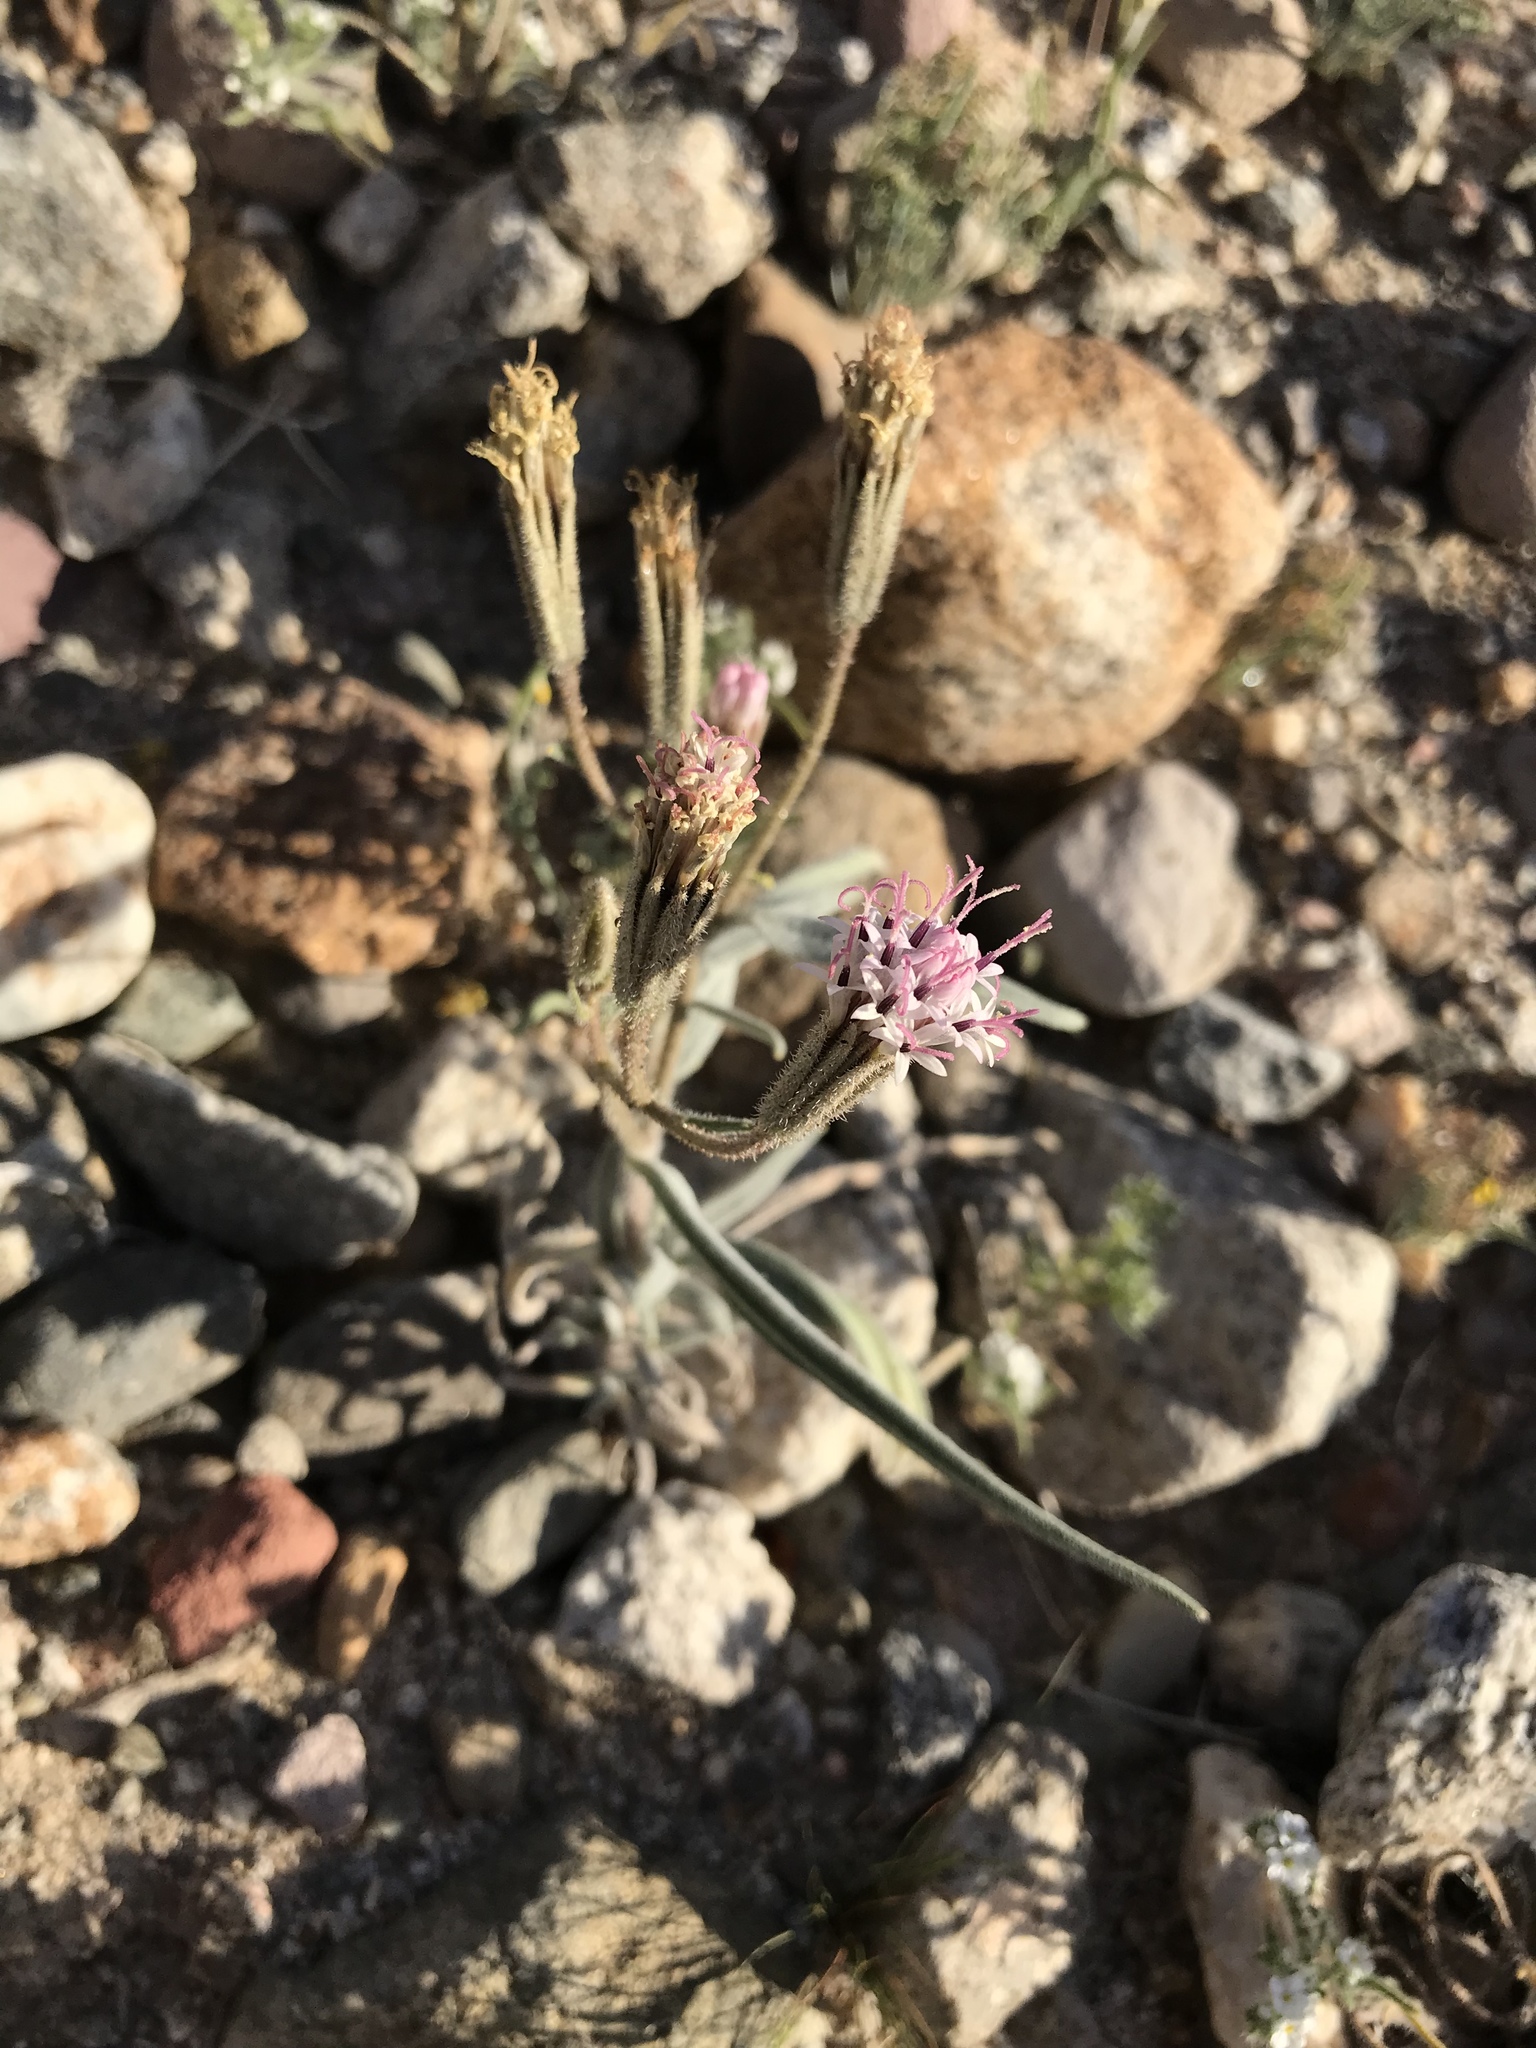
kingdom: Plantae
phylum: Tracheophyta
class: Magnoliopsida
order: Asterales
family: Asteraceae
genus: Palafoxia
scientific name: Palafoxia arida
